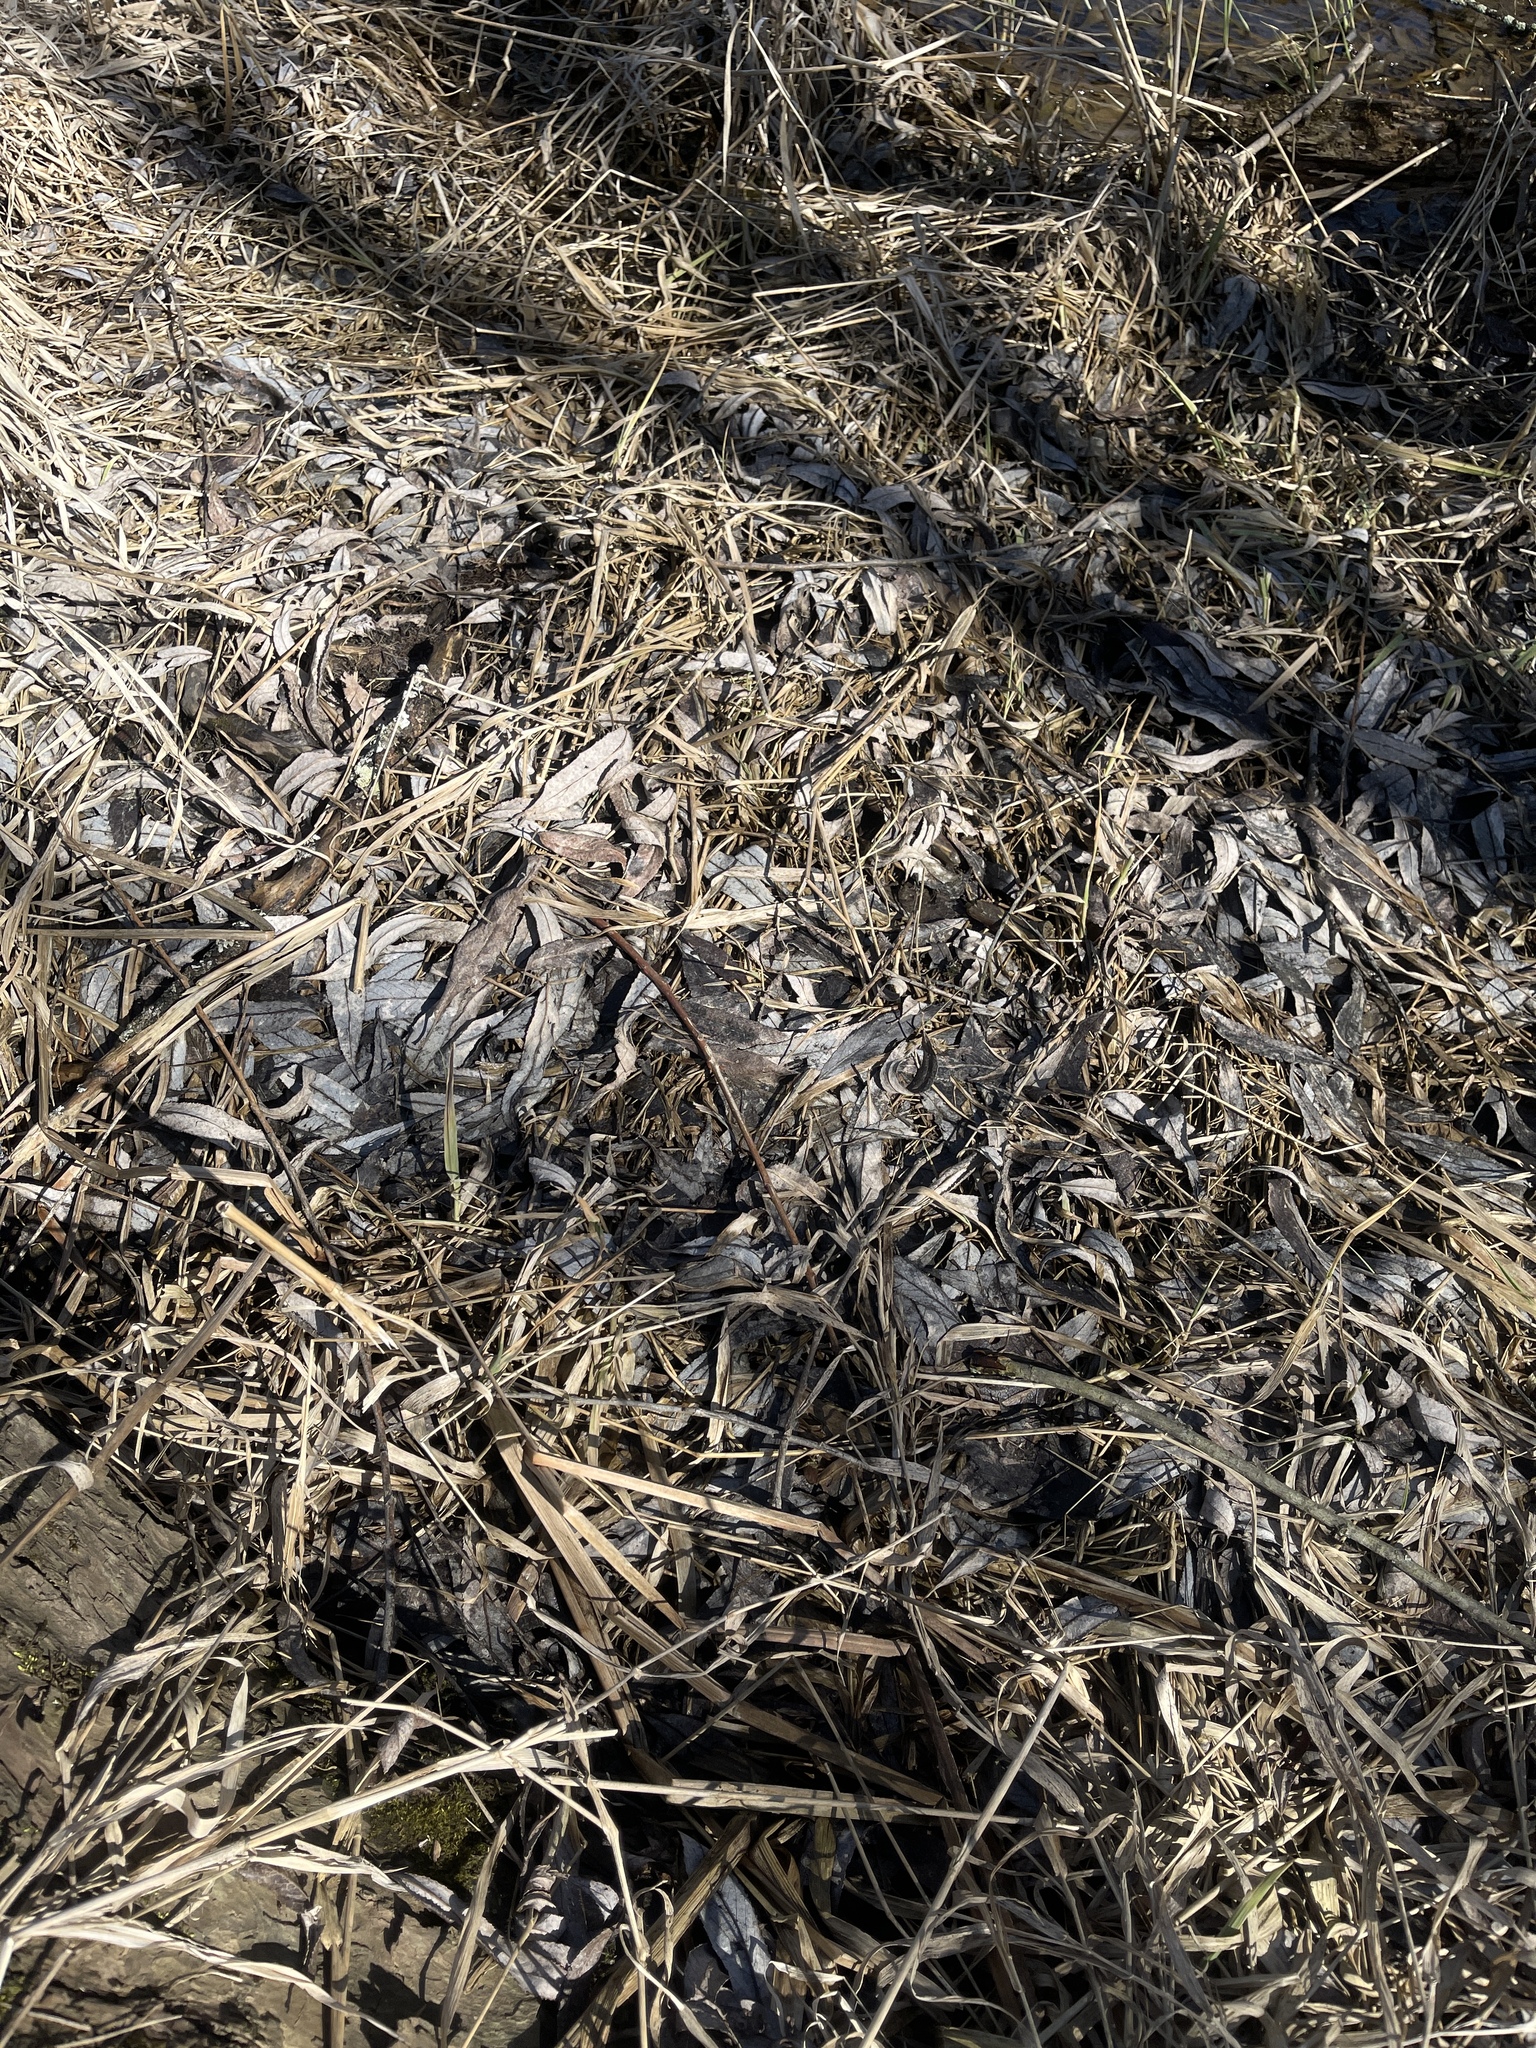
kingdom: Plantae
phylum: Tracheophyta
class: Magnoliopsida
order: Malpighiales
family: Salicaceae
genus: Salix
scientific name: Salix alba
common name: White willow
